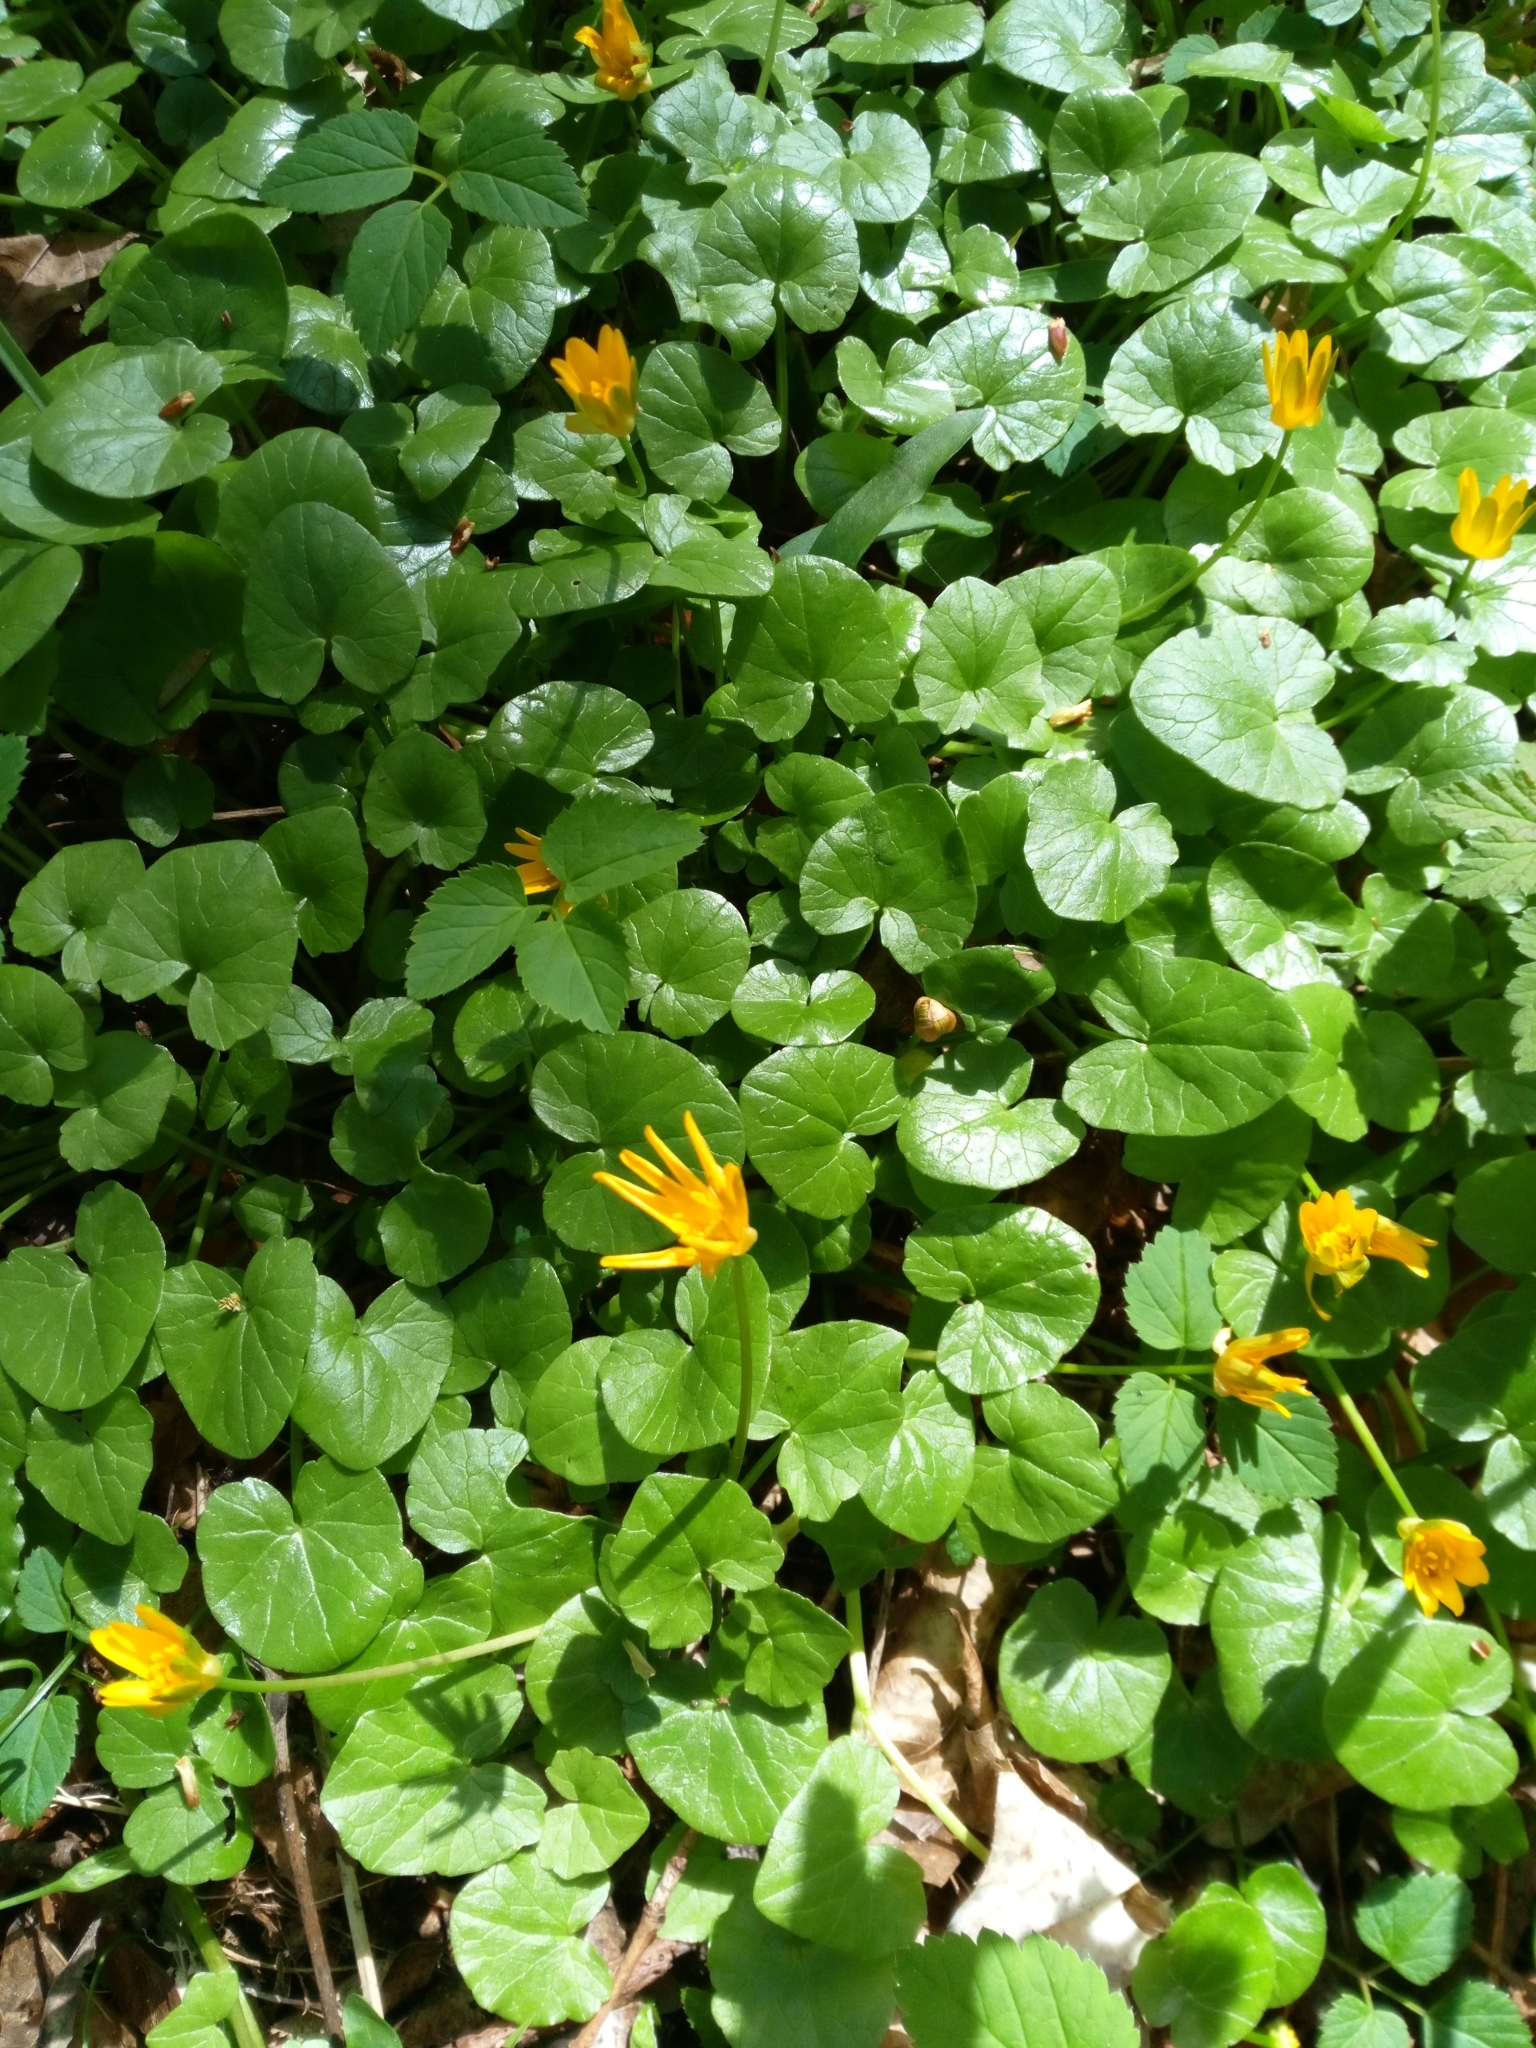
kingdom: Plantae
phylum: Tracheophyta
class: Magnoliopsida
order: Ranunculales
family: Ranunculaceae
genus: Ficaria
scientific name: Ficaria verna
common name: Lesser celandine
